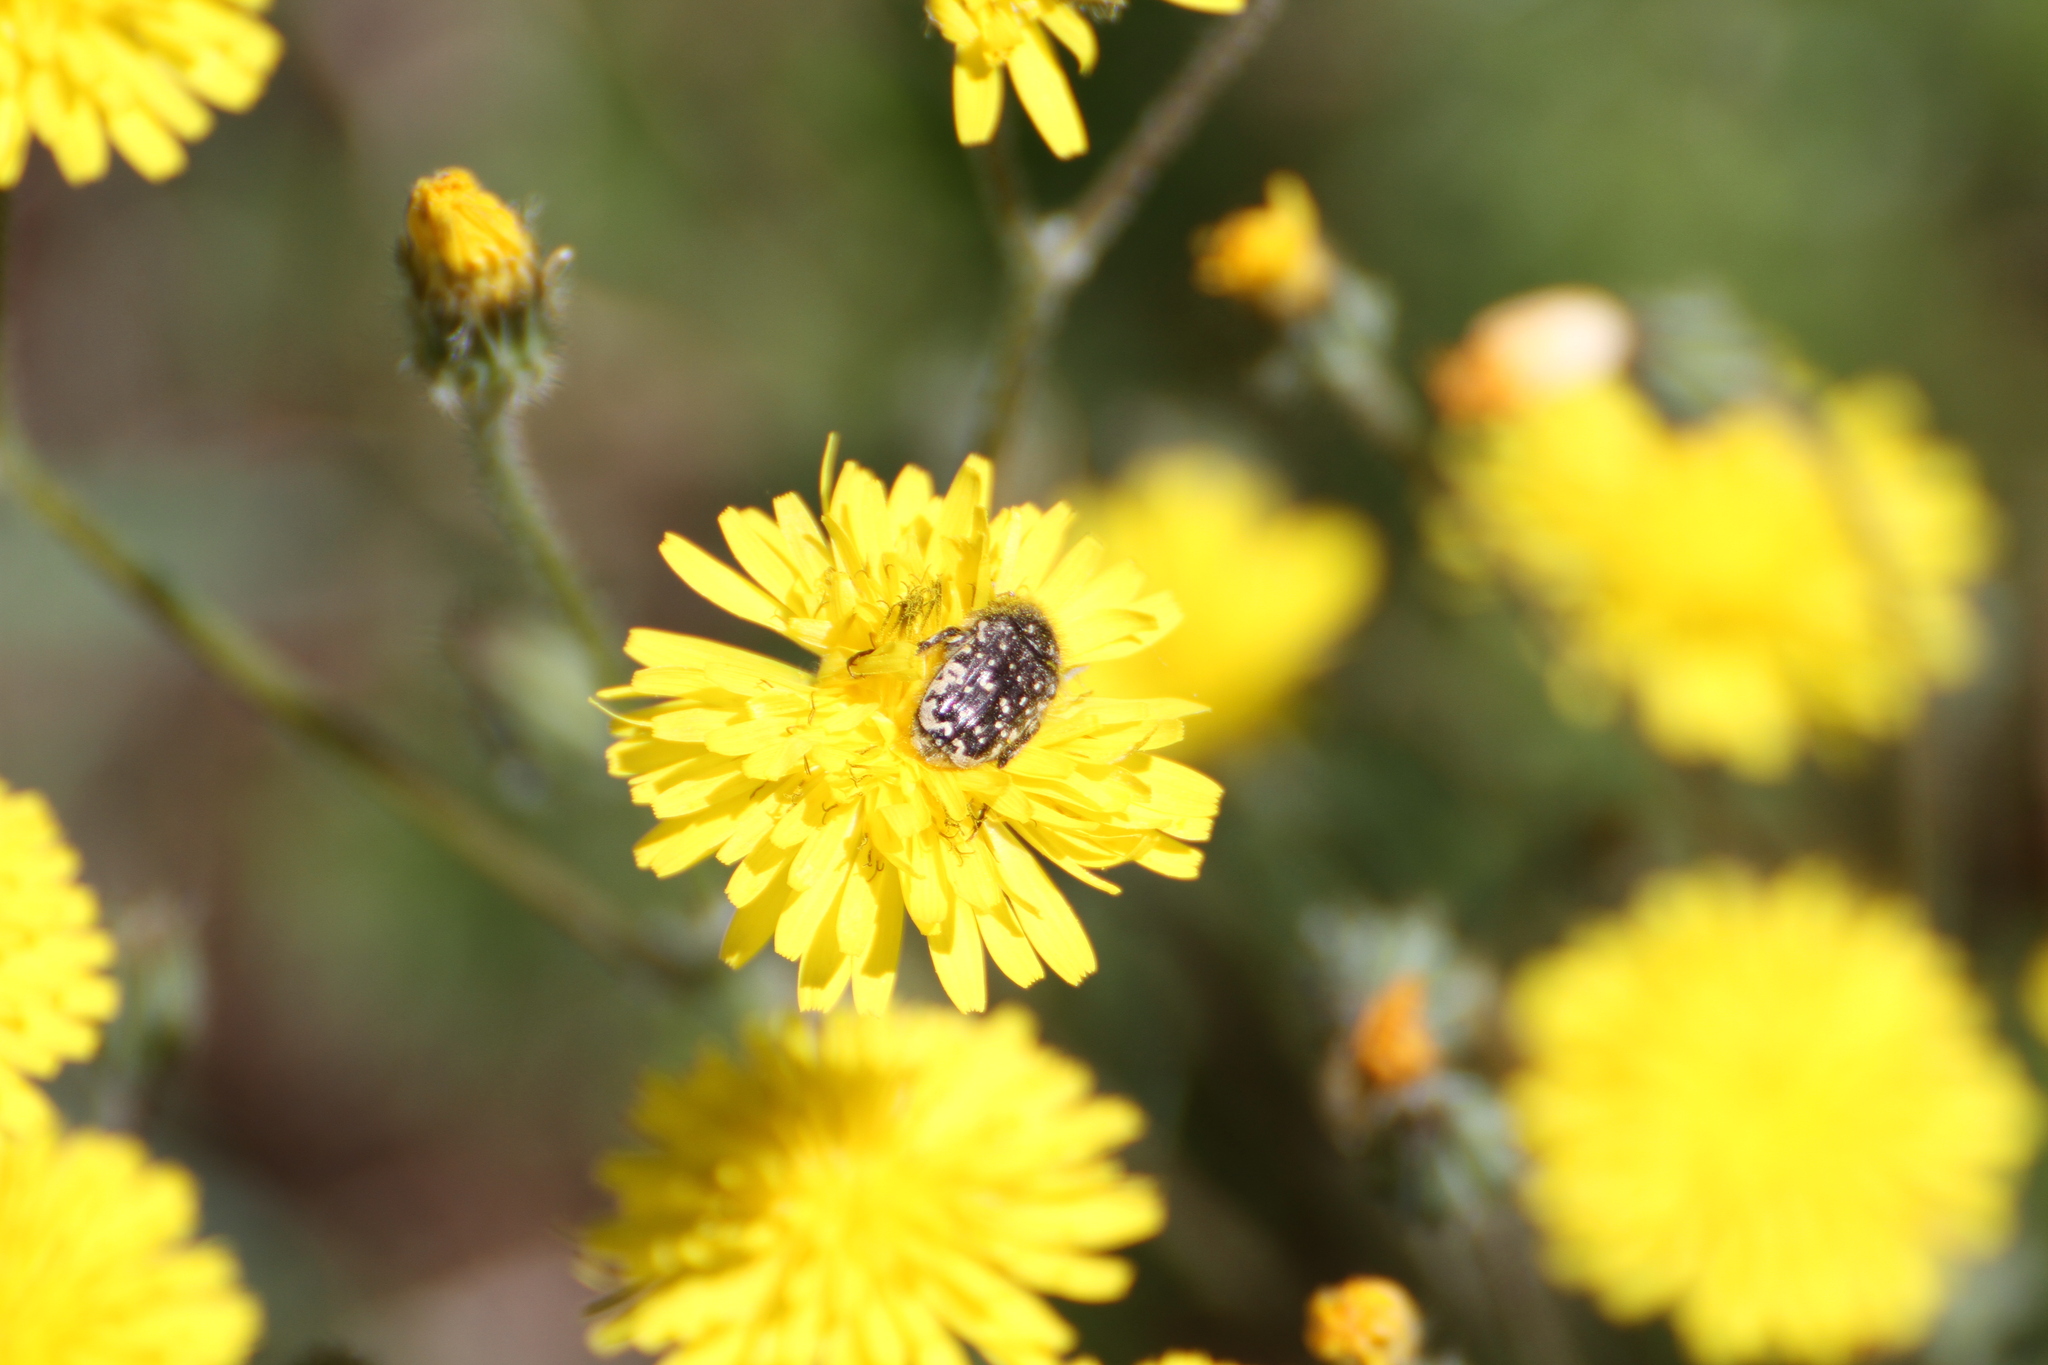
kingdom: Animalia
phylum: Arthropoda
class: Insecta
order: Coleoptera
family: Scarabaeidae
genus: Oxythyrea
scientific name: Oxythyrea funesta
